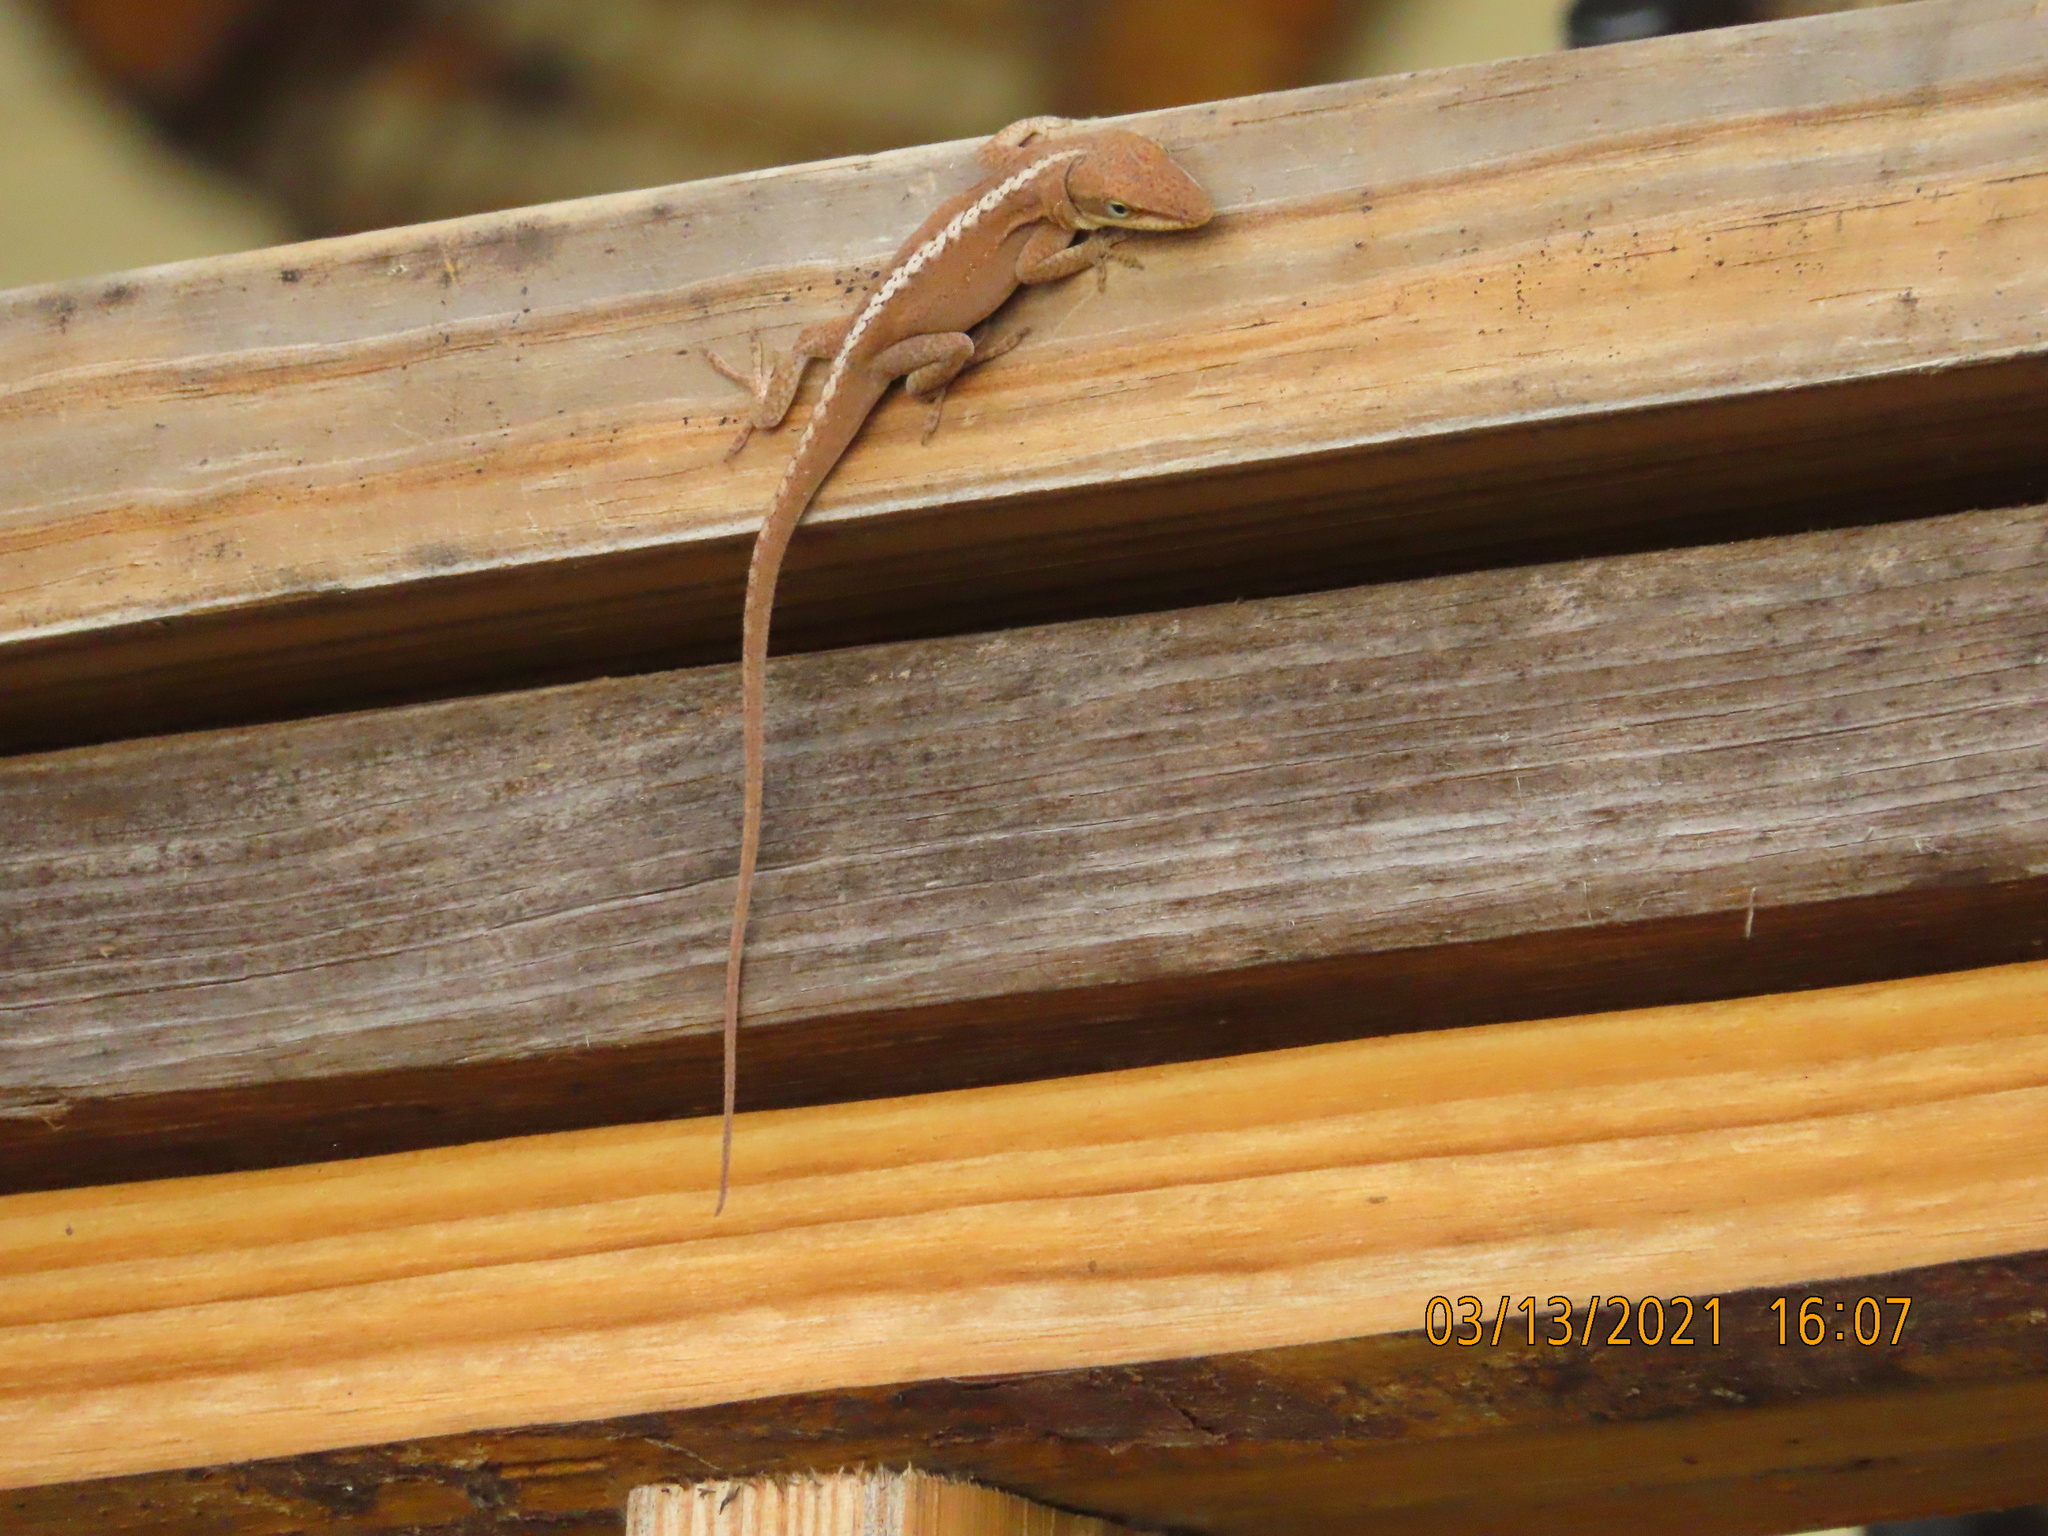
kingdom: Animalia
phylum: Chordata
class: Squamata
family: Dactyloidae
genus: Anolis
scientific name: Anolis carolinensis
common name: Green anole
